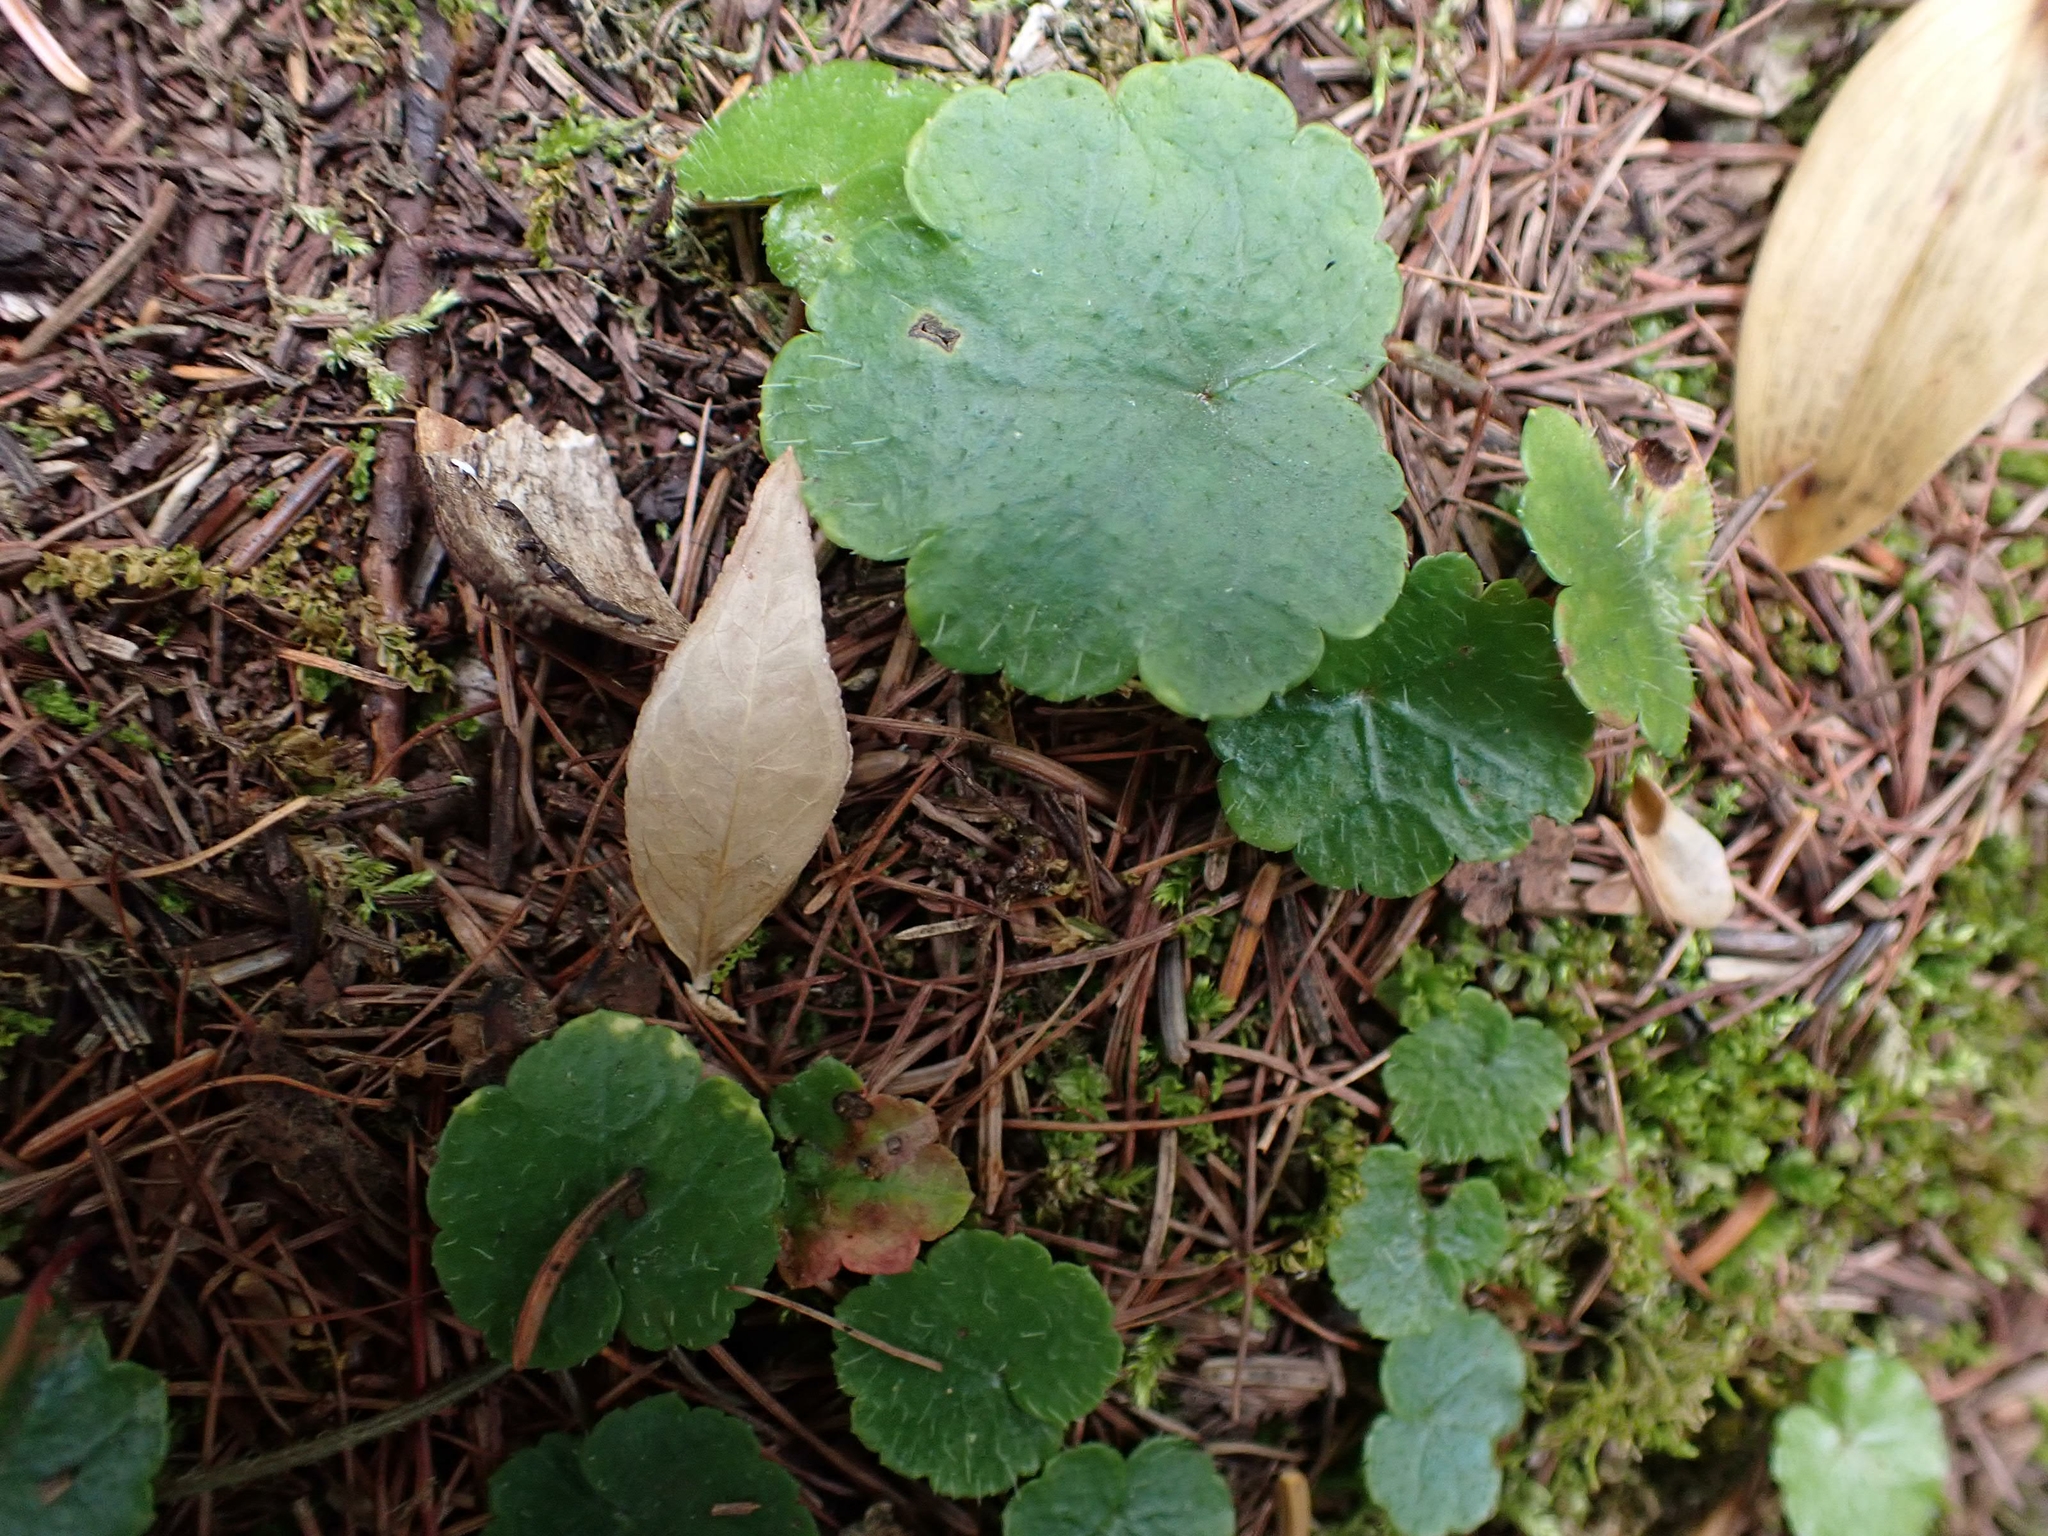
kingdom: Plantae
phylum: Tracheophyta
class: Magnoliopsida
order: Saxifragales
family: Saxifragaceae
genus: Mitella
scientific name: Mitella nuda
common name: Bare-stemmed bishop's-cap
